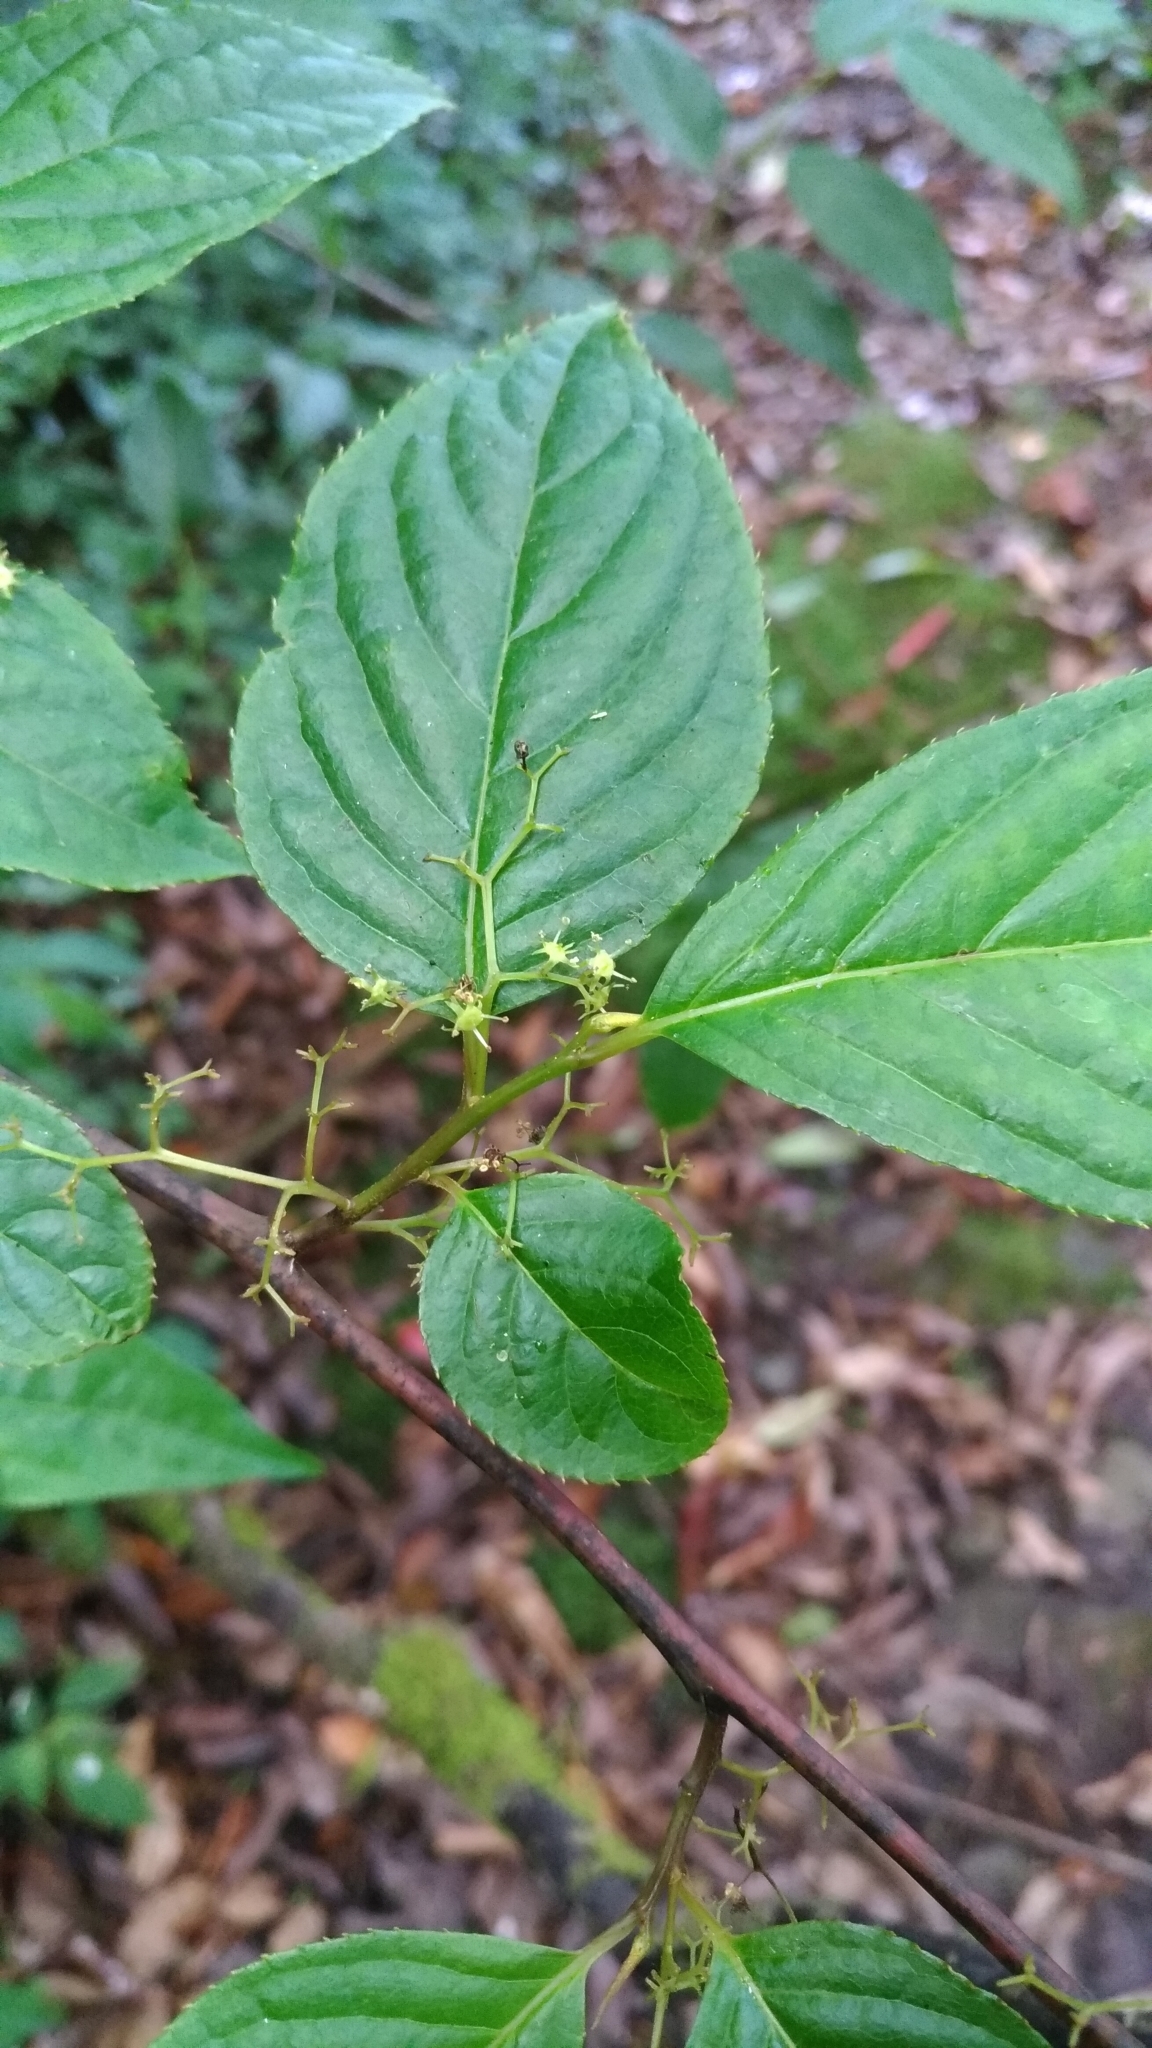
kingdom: Plantae
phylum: Tracheophyta
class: Magnoliopsida
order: Huerteales
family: Dipentodontaceae
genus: Perrottetia
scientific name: Perrottetia arisanensis
